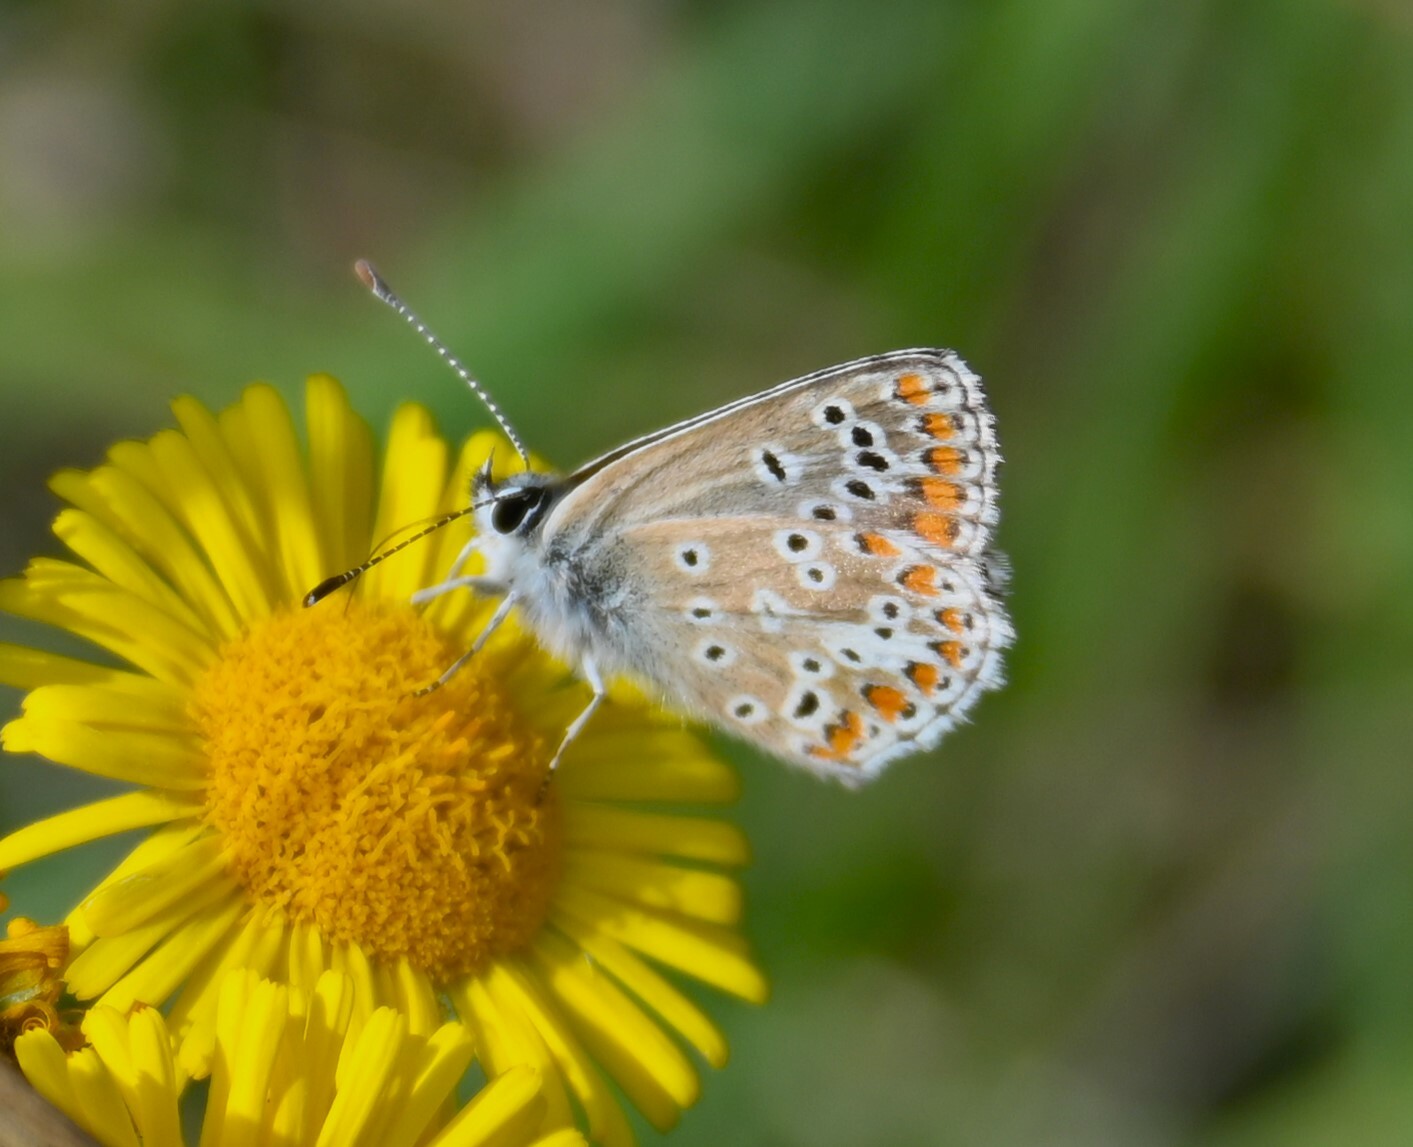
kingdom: Animalia
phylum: Arthropoda
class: Insecta
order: Lepidoptera
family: Lycaenidae
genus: Aricia
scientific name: Aricia agestis
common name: Brown argus
